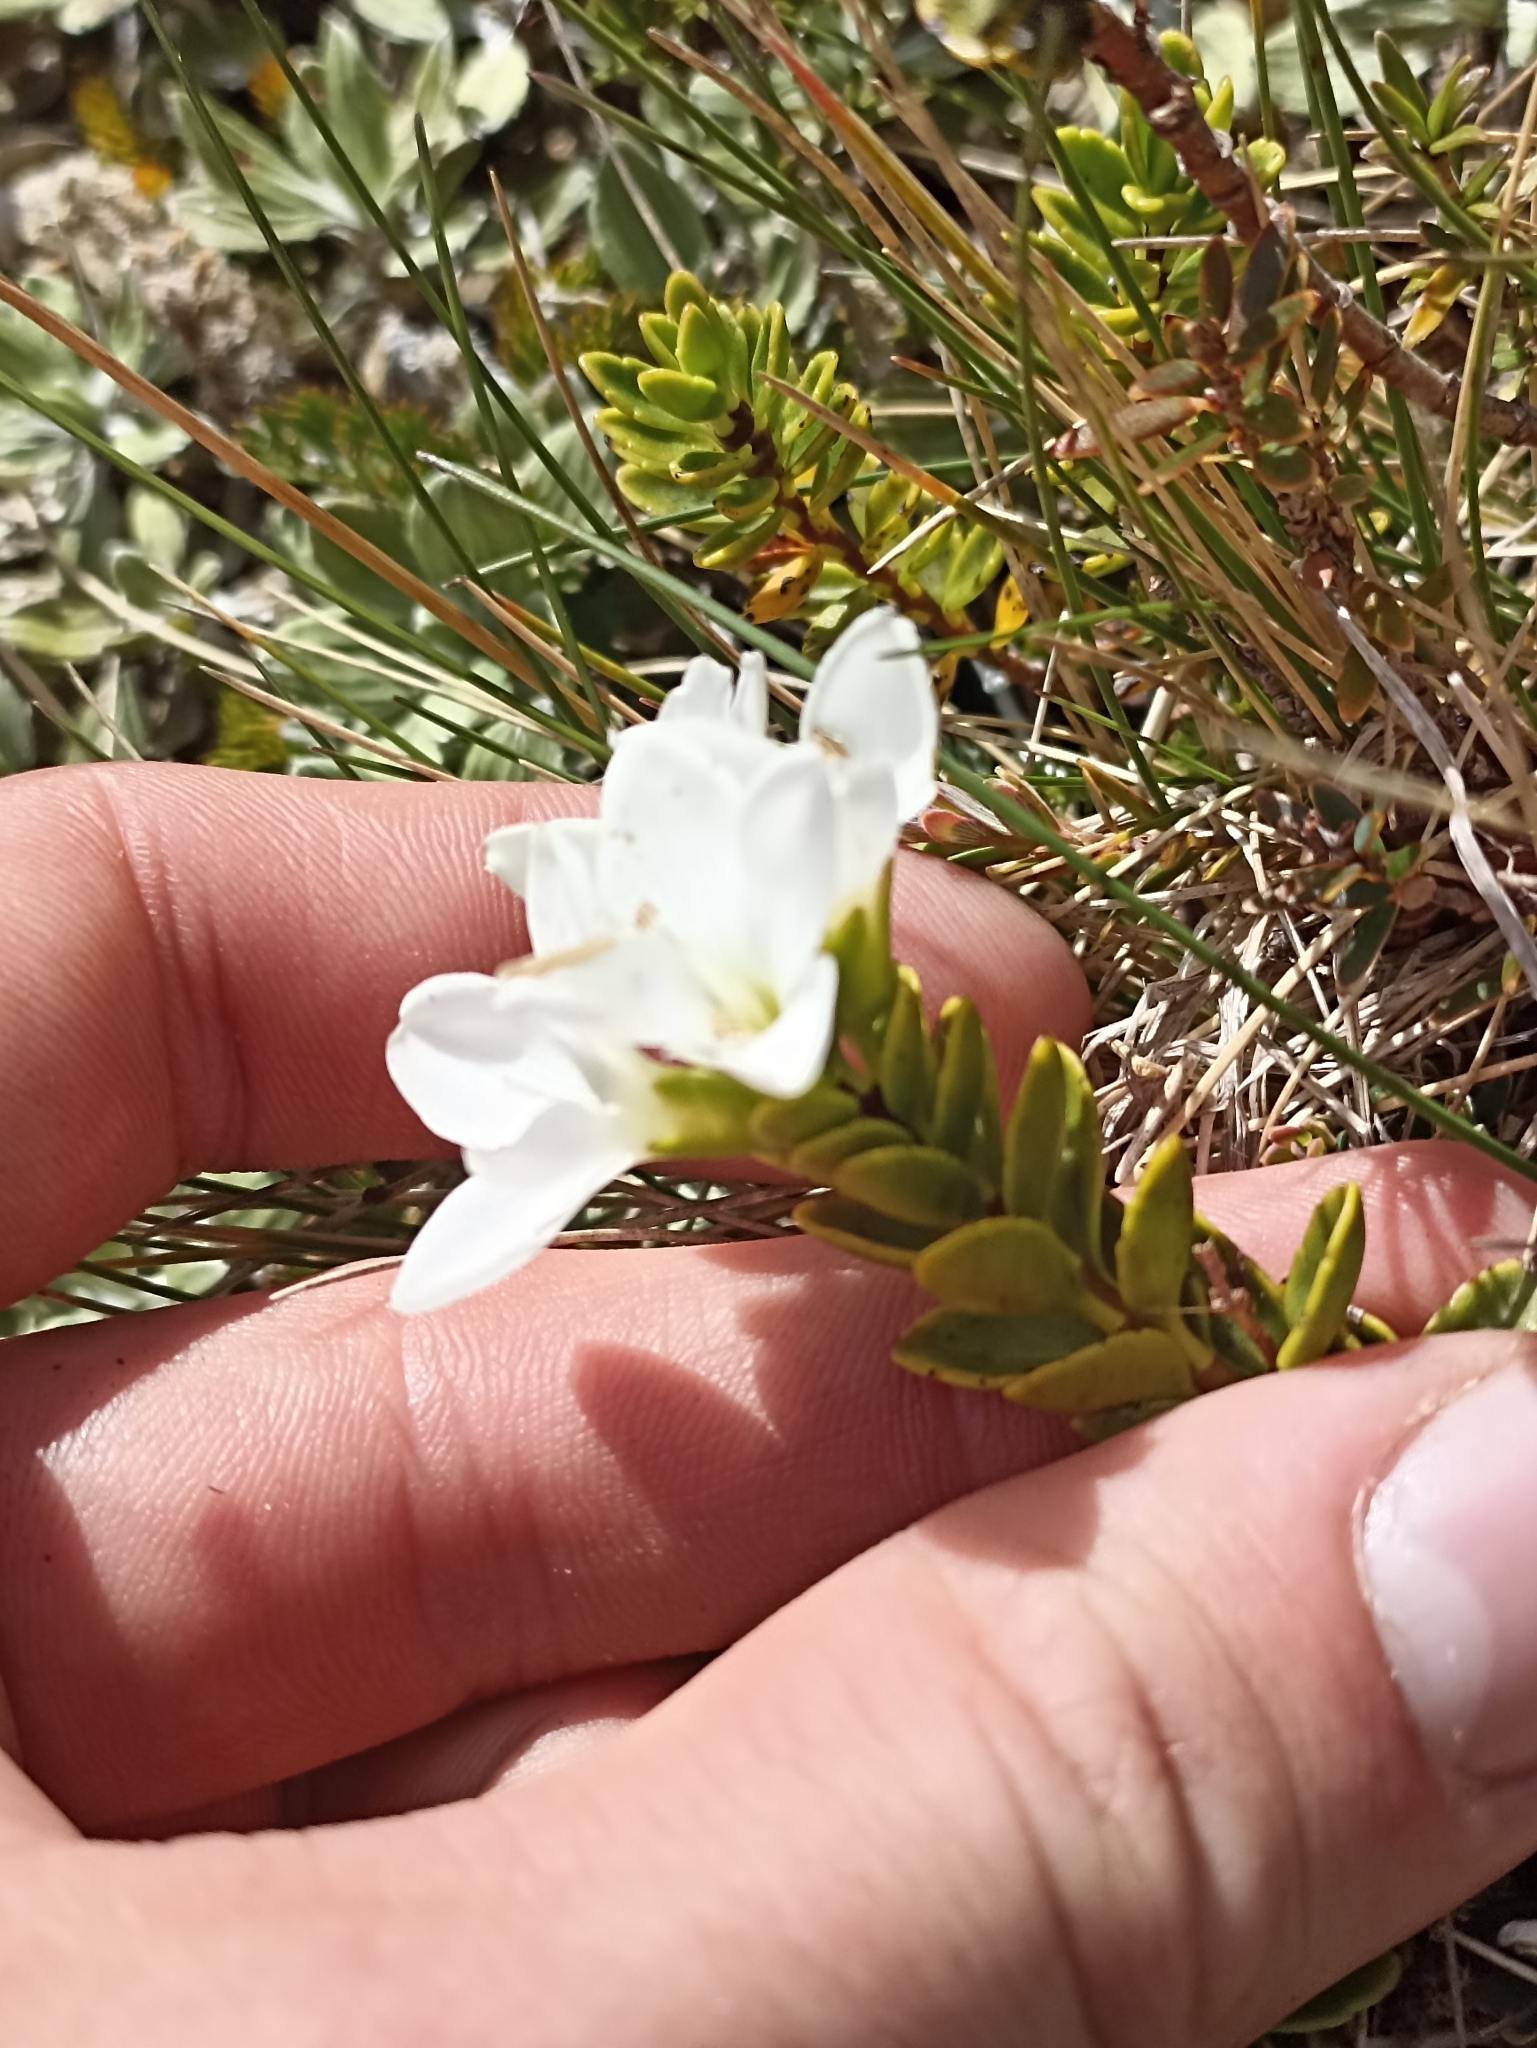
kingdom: Plantae
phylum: Tracheophyta
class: Magnoliopsida
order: Lamiales
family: Plantaginaceae
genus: Veronica
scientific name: Veronica macrantha
